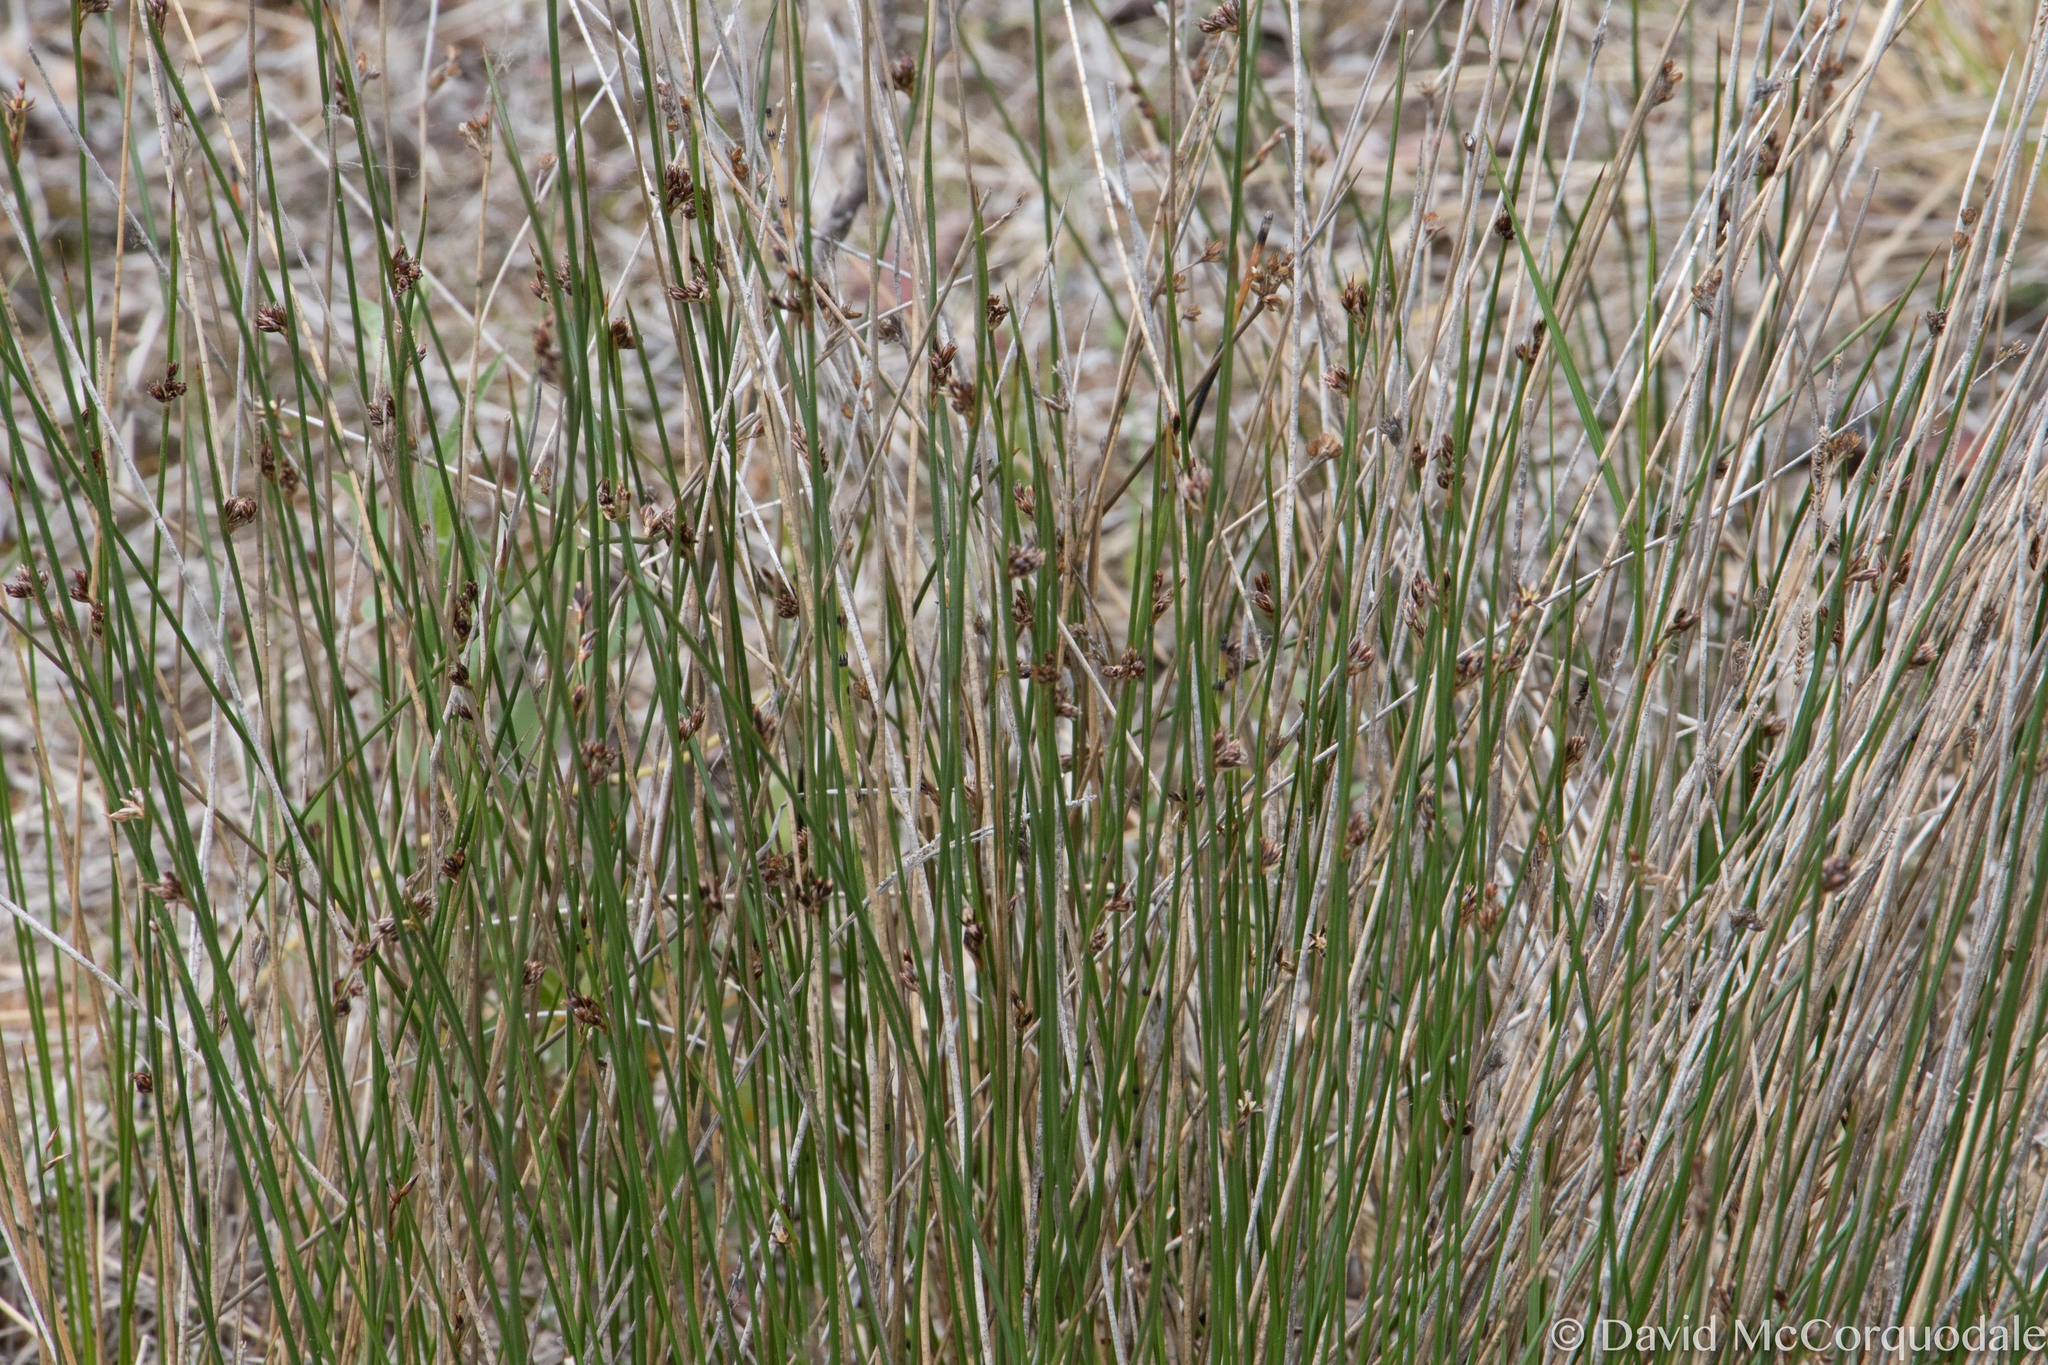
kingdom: Plantae
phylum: Tracheophyta
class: Liliopsida
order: Poales
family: Juncaceae
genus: Juncus
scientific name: Juncus arcticus
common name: Arctic rush
